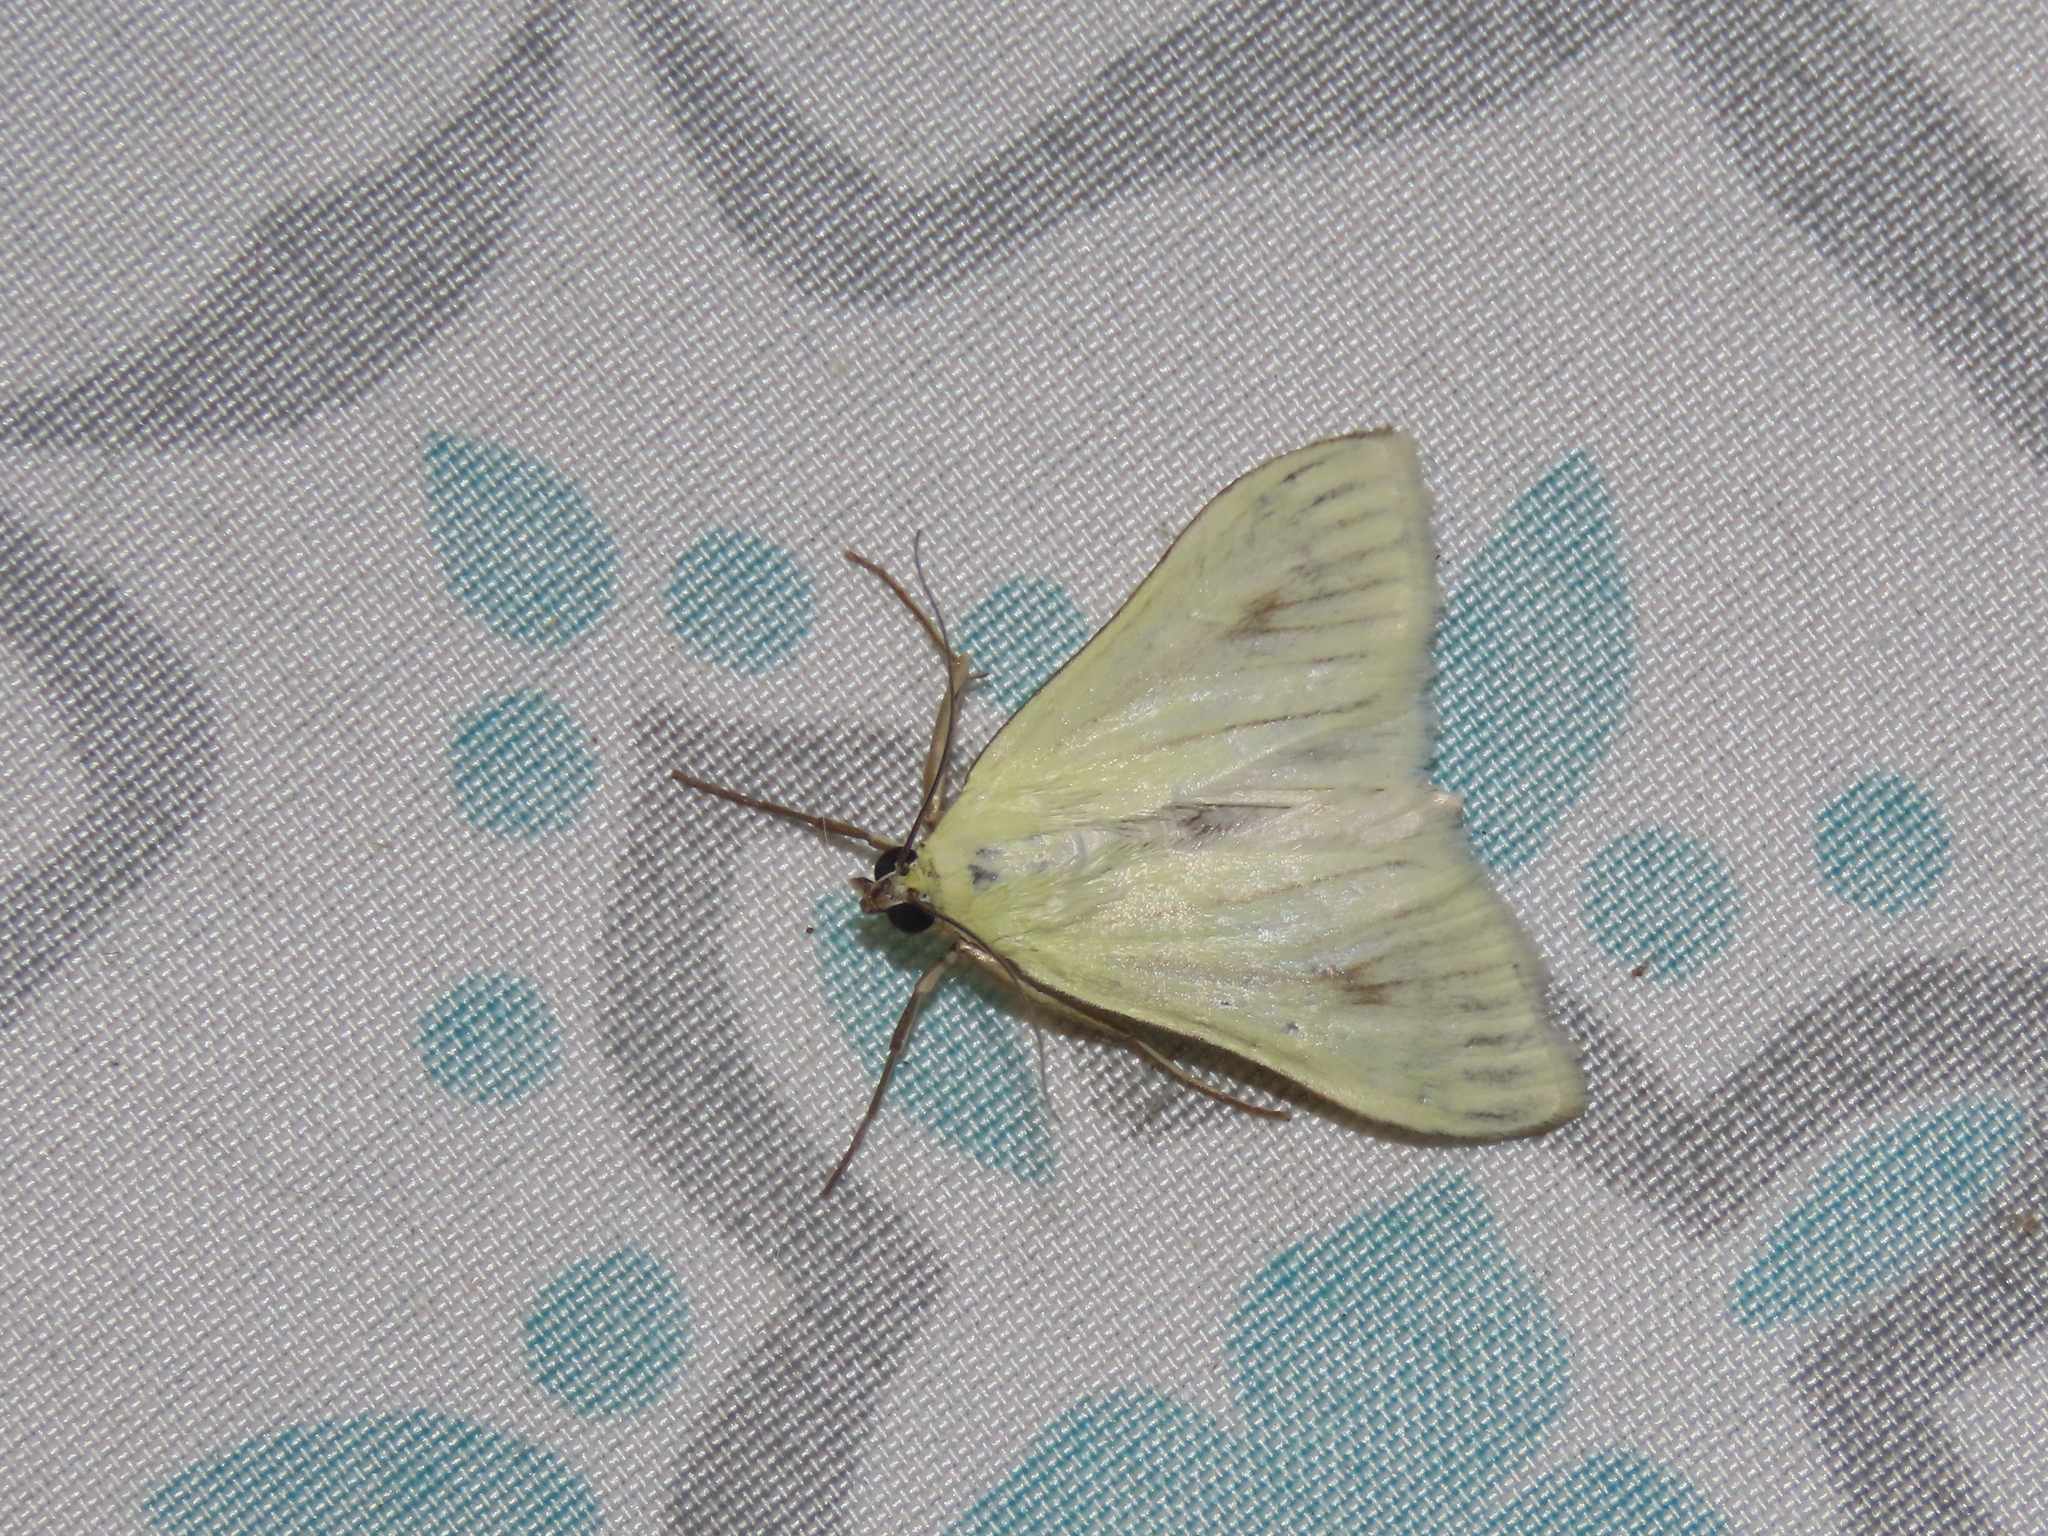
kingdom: Animalia
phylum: Arthropoda
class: Insecta
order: Lepidoptera
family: Crambidae
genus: Sitochroa
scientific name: Sitochroa palealis
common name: Greenish-yellow sitochroa moth
